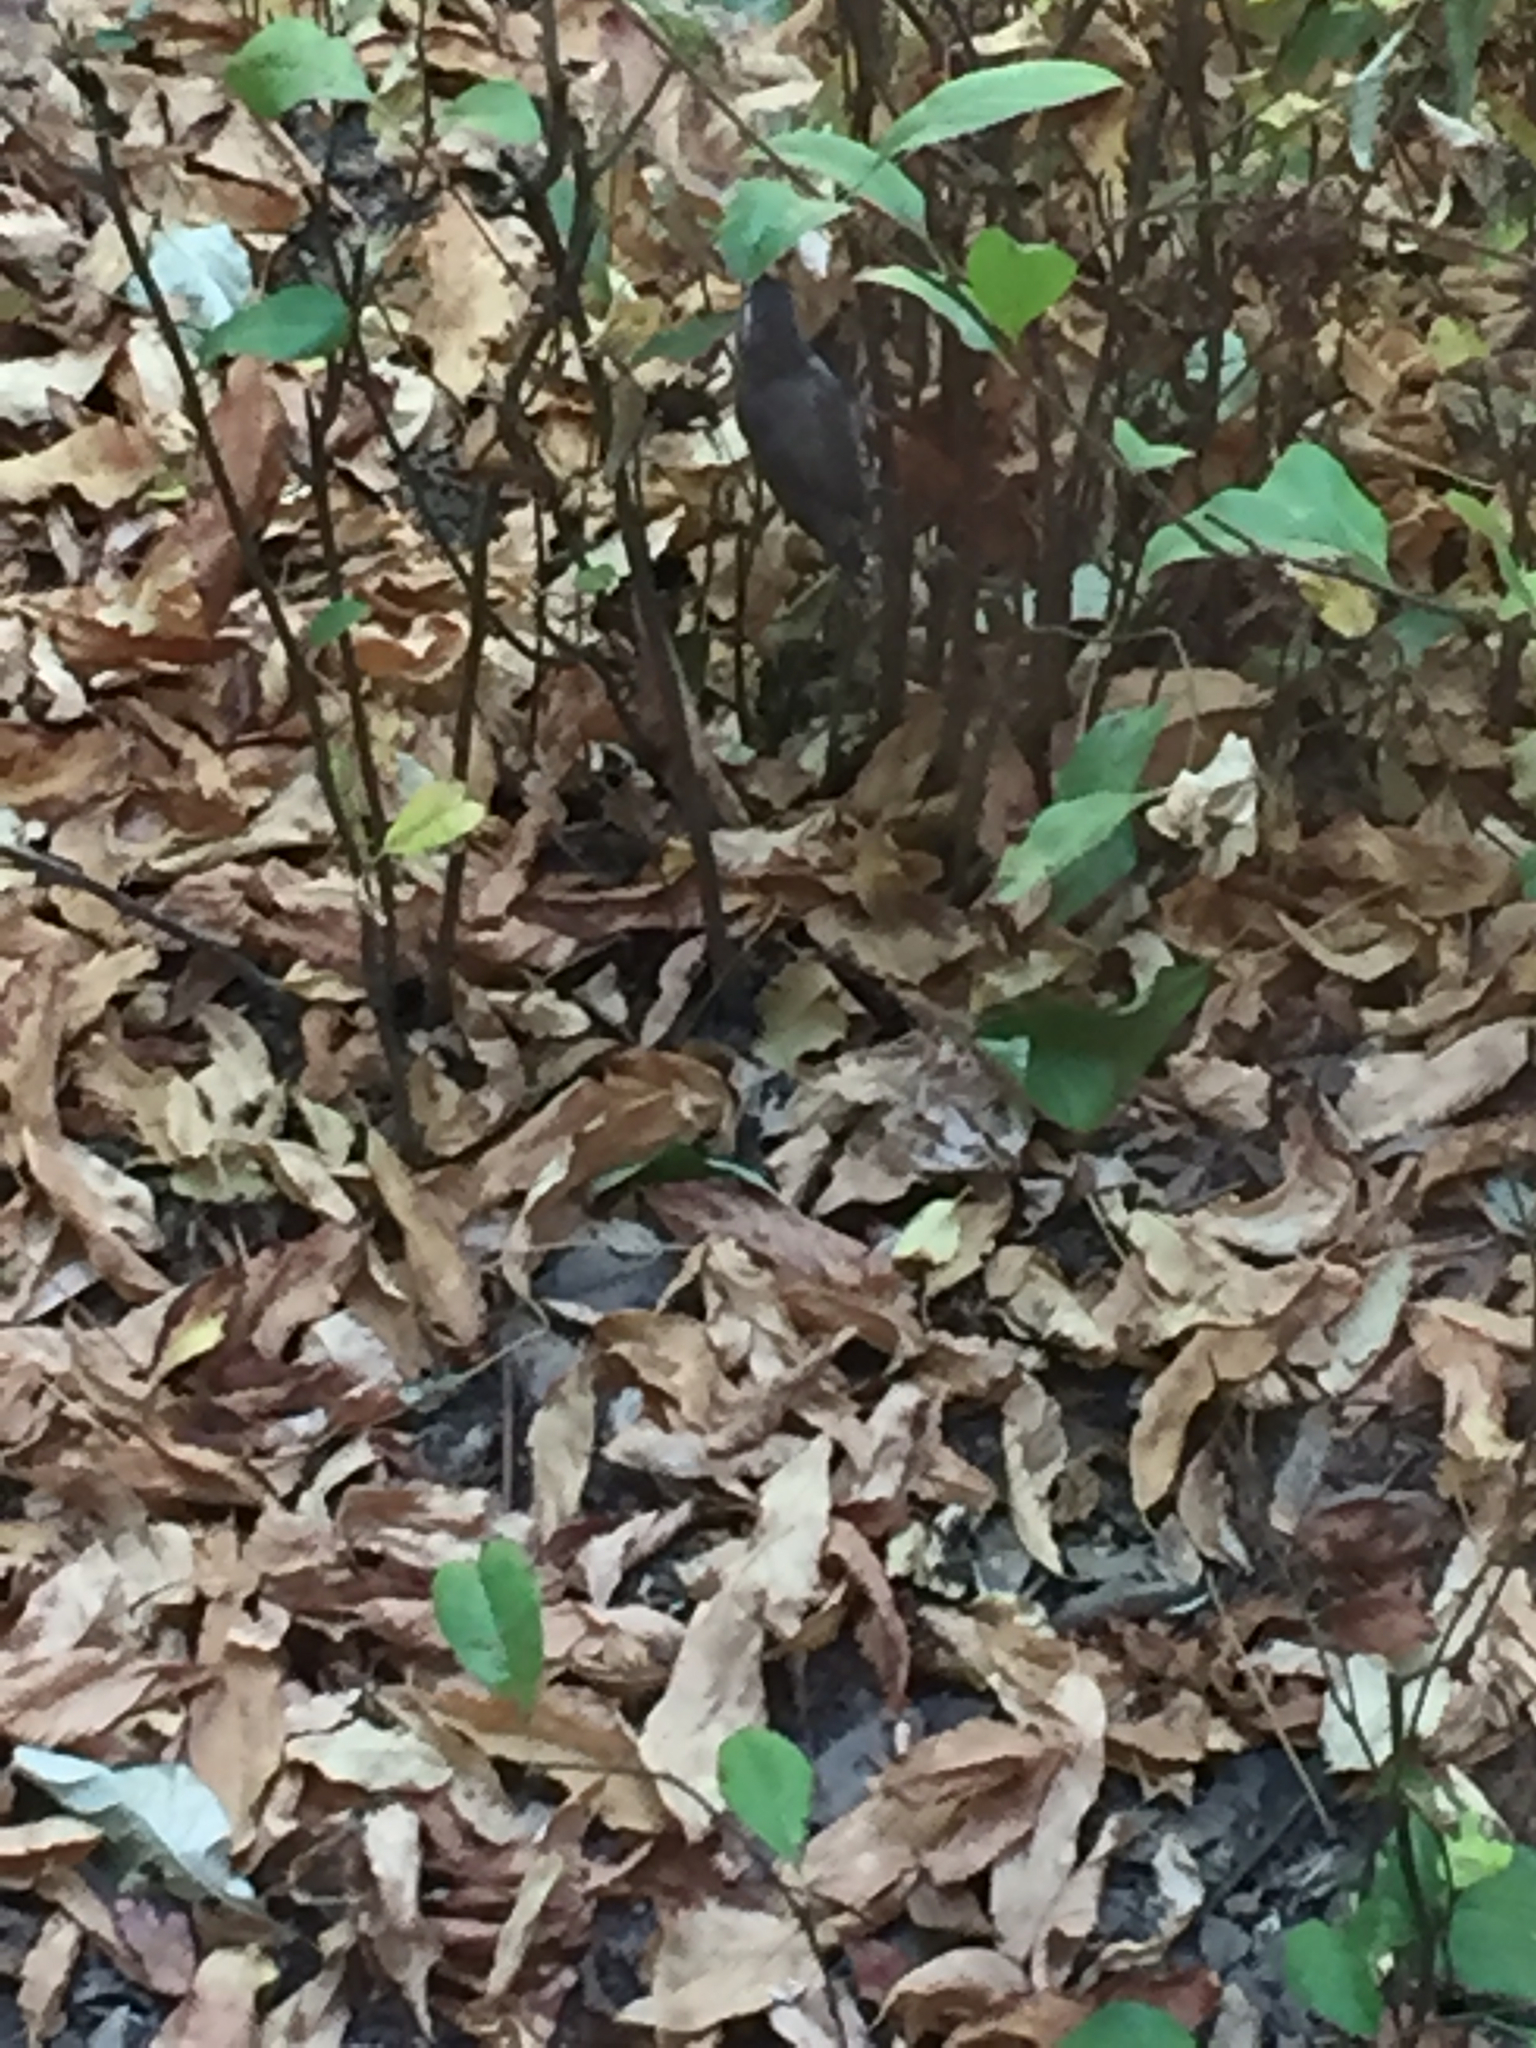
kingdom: Animalia
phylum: Chordata
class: Aves
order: Passeriformes
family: Troglodytidae
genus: Thryomanes
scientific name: Thryomanes bewickii
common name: Bewick's wren
